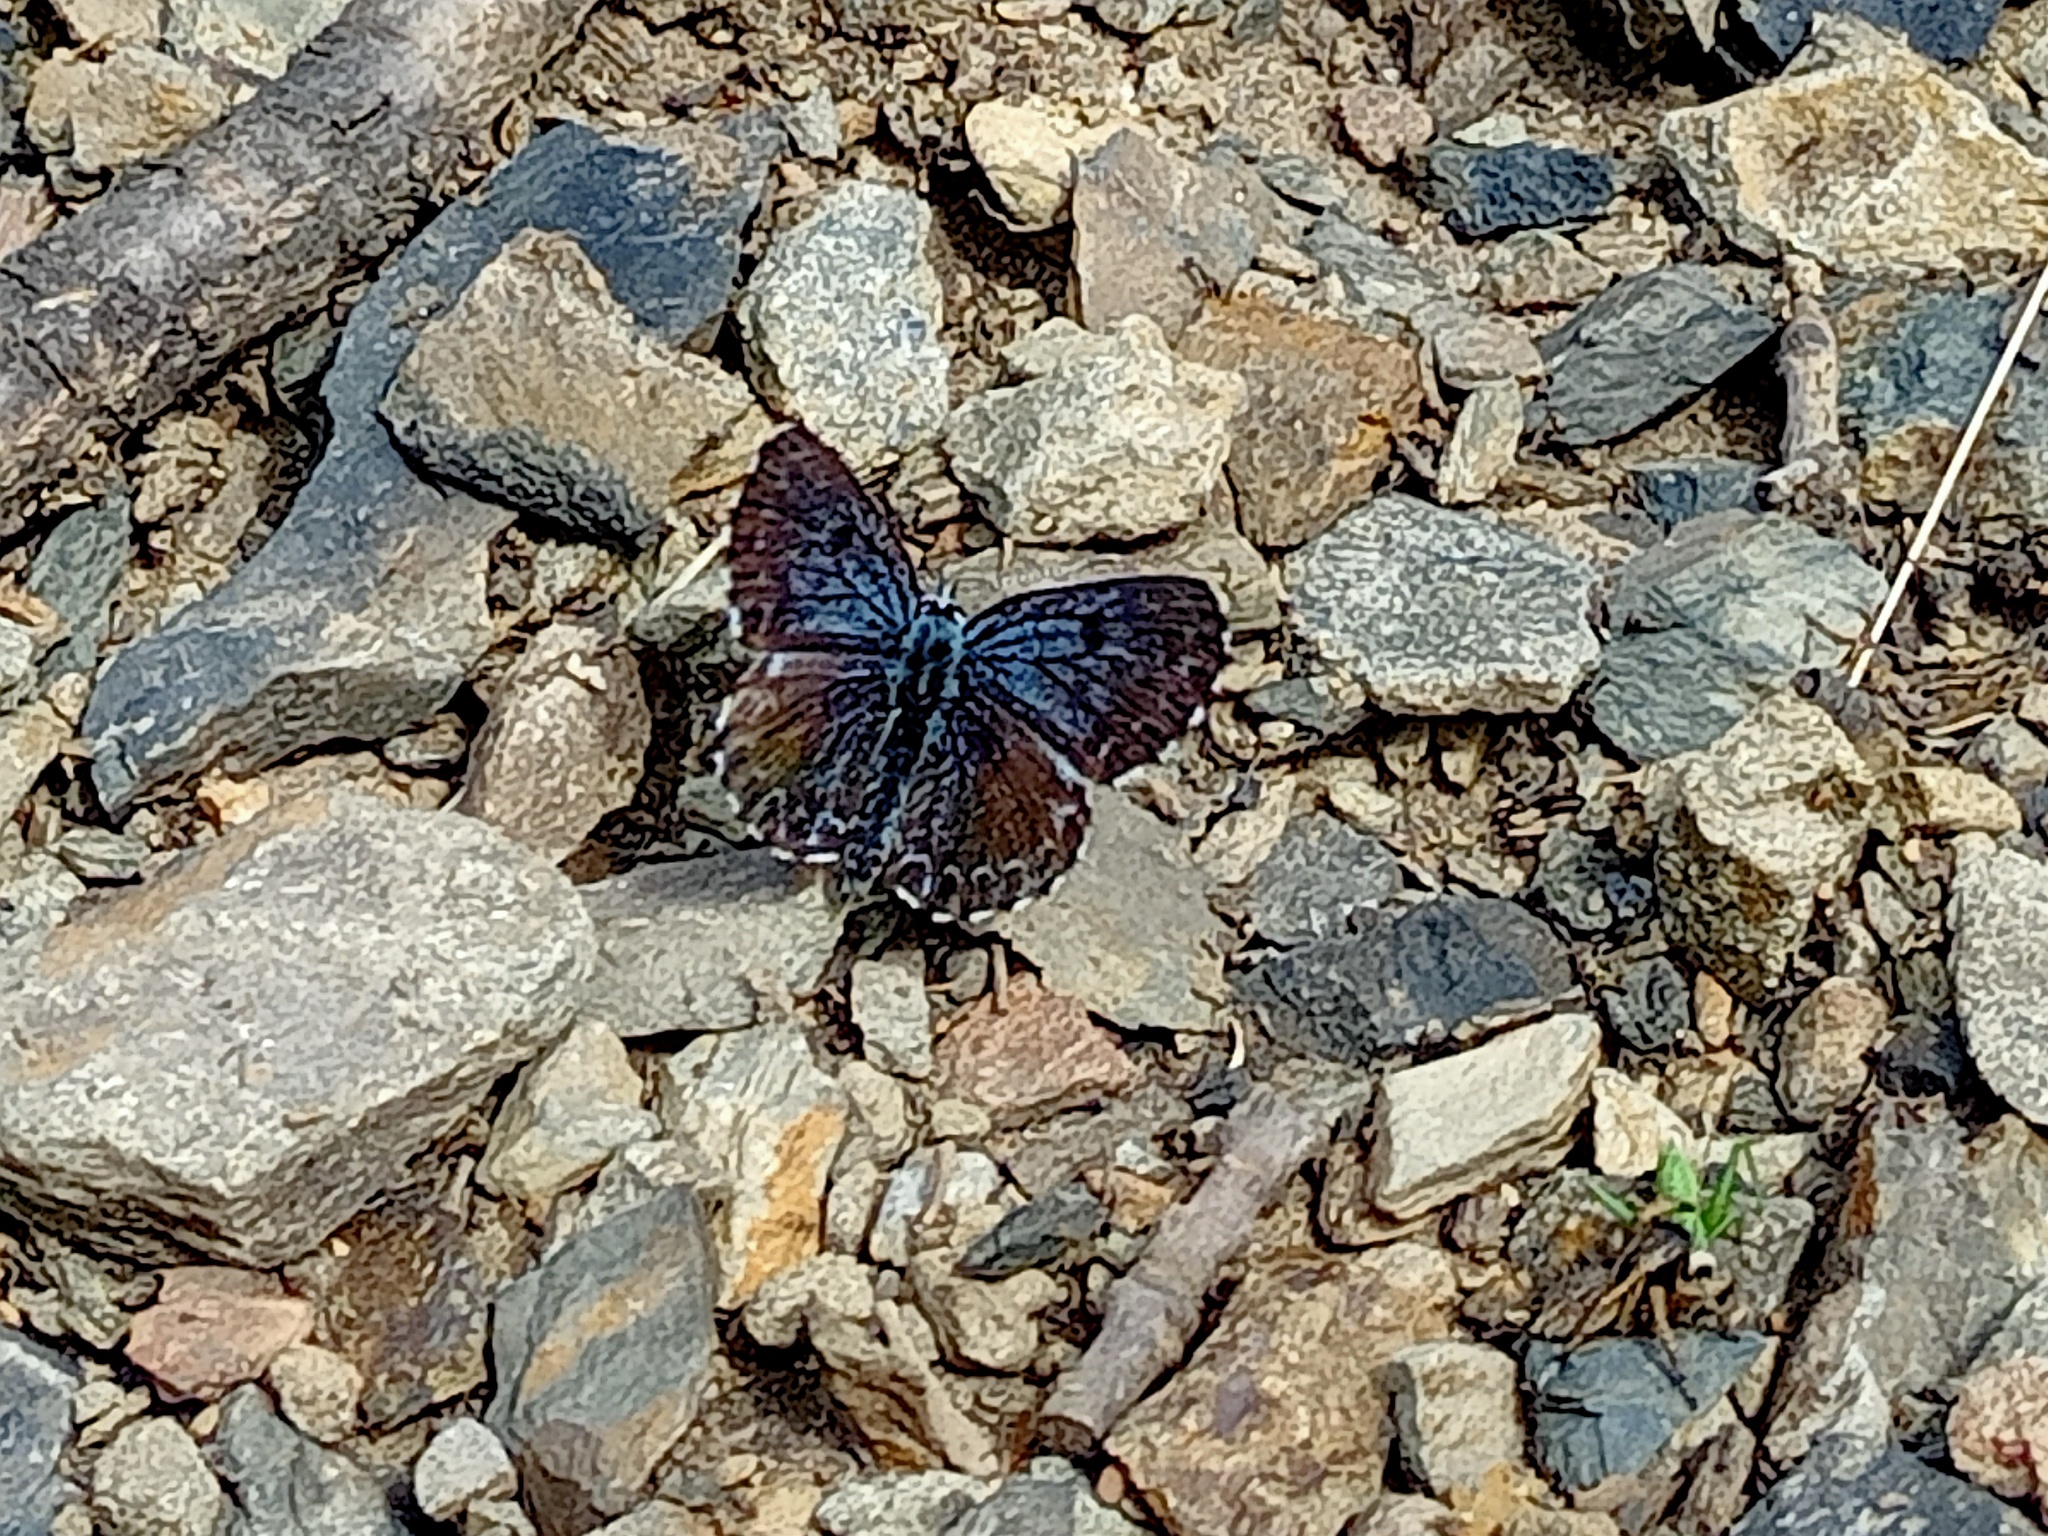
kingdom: Animalia
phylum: Arthropoda
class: Insecta
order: Lepidoptera
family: Lycaenidae
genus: Scolitantides
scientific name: Scolitantides orion
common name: Chequered blue
